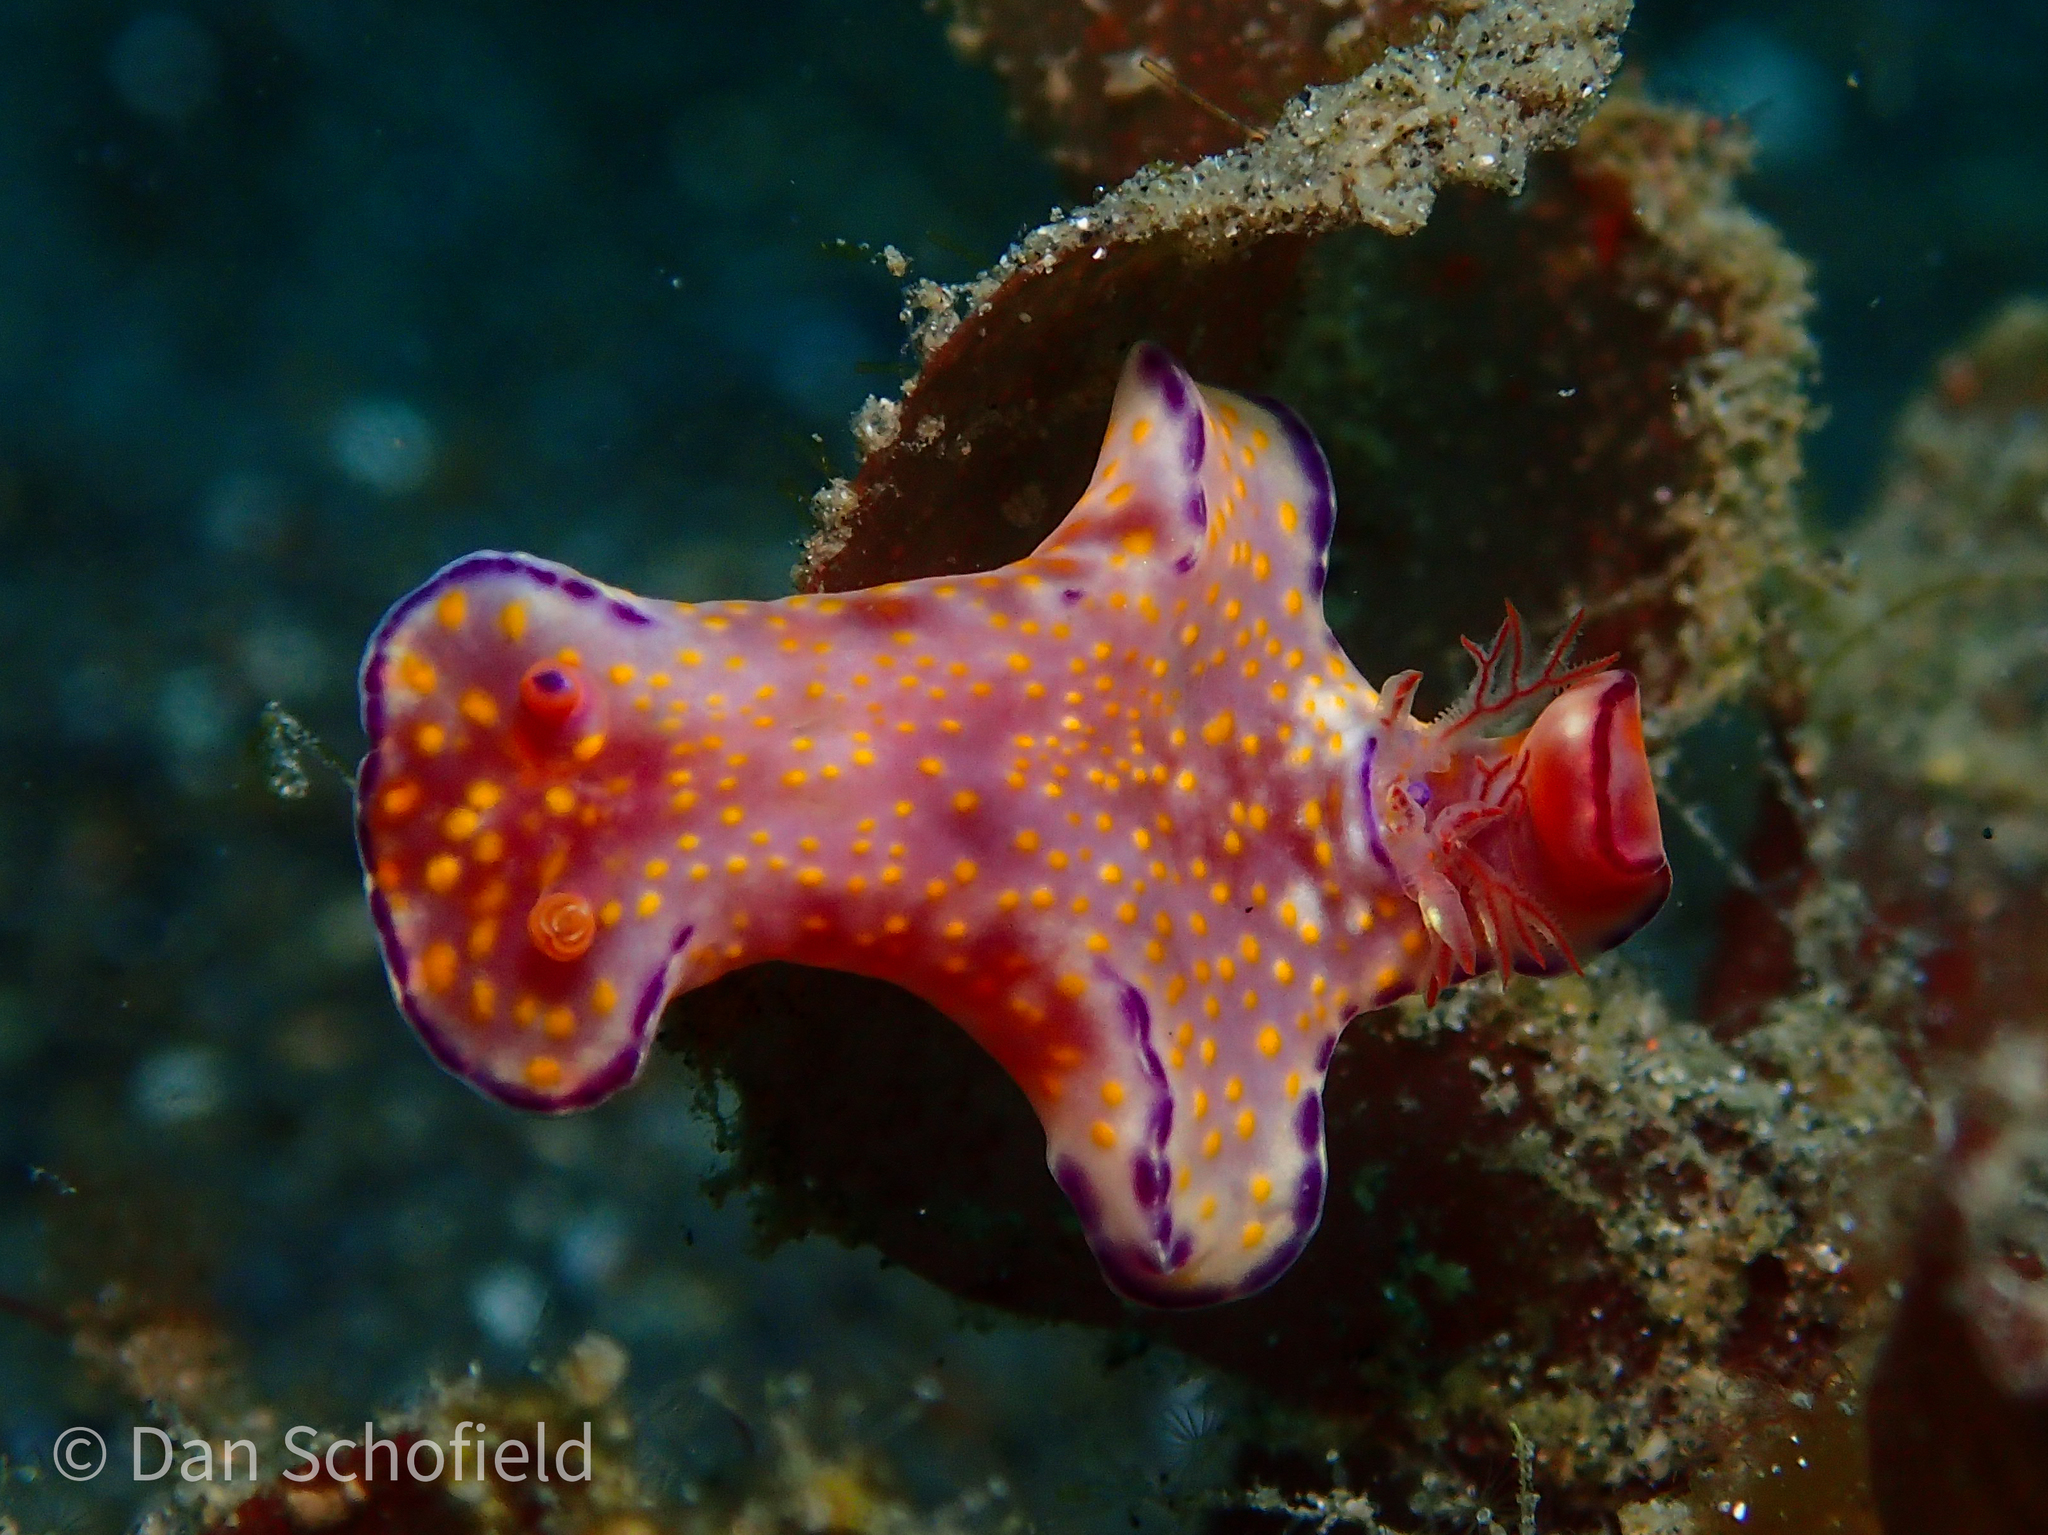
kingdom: Animalia
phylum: Mollusca
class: Gastropoda
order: Nudibranchia
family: Chromodorididae
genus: Ceratosoma
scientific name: Ceratosoma gracillimum
